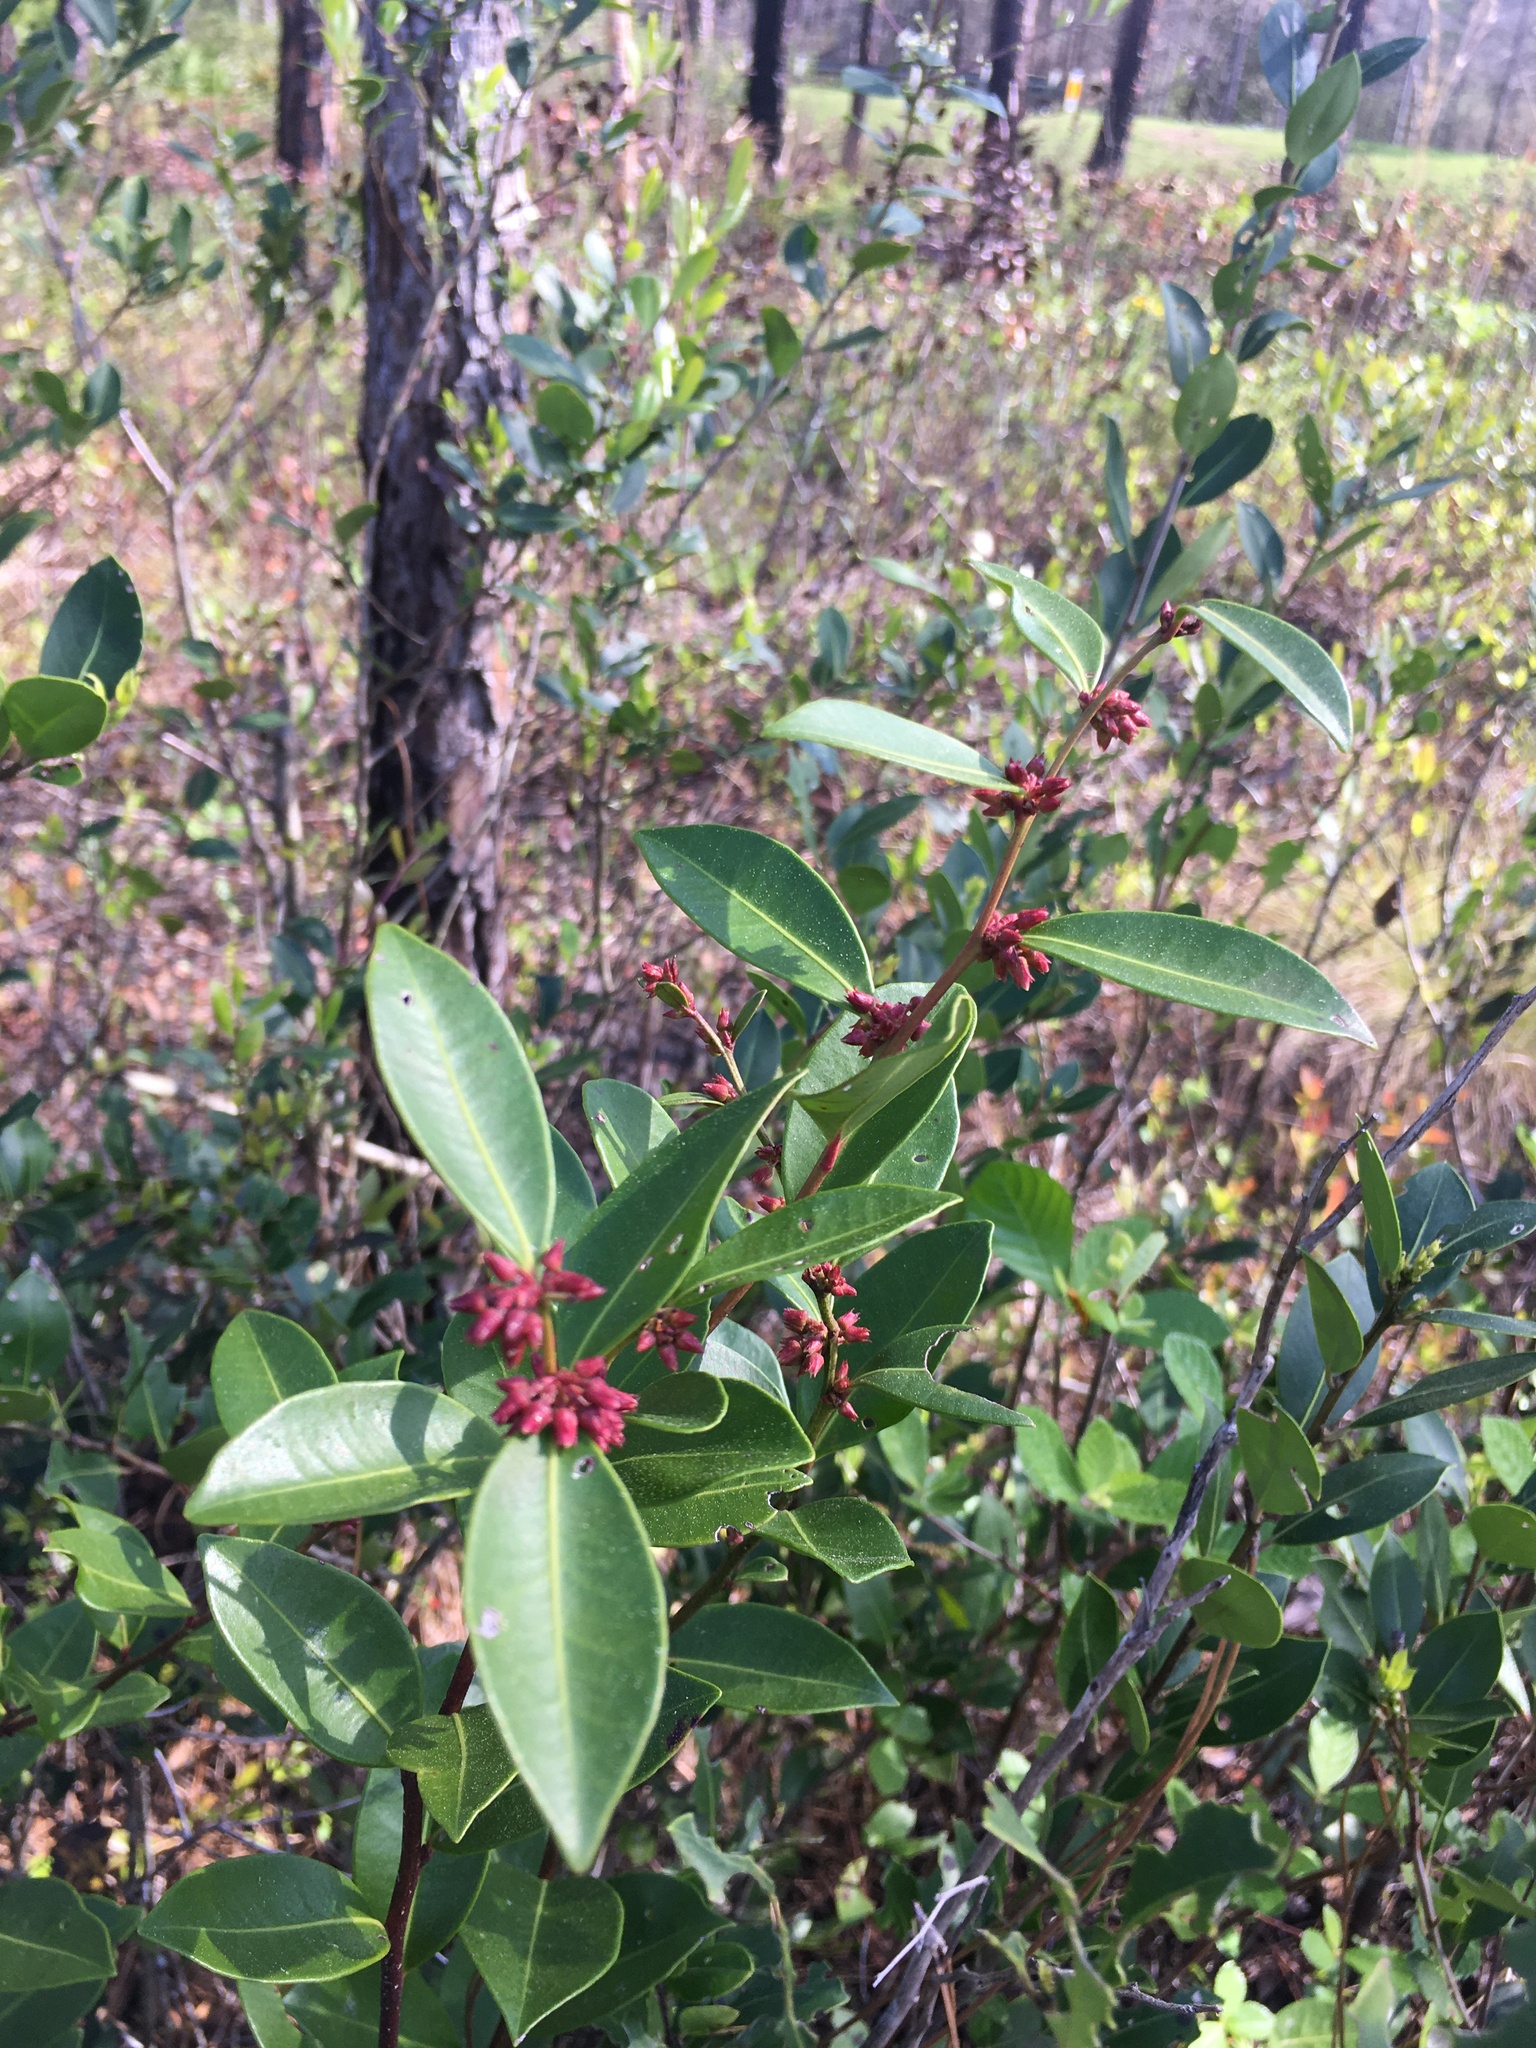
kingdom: Plantae
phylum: Tracheophyta
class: Magnoliopsida
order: Ericales
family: Ericaceae
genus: Lyonia
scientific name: Lyonia lucida
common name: Fetterbush
